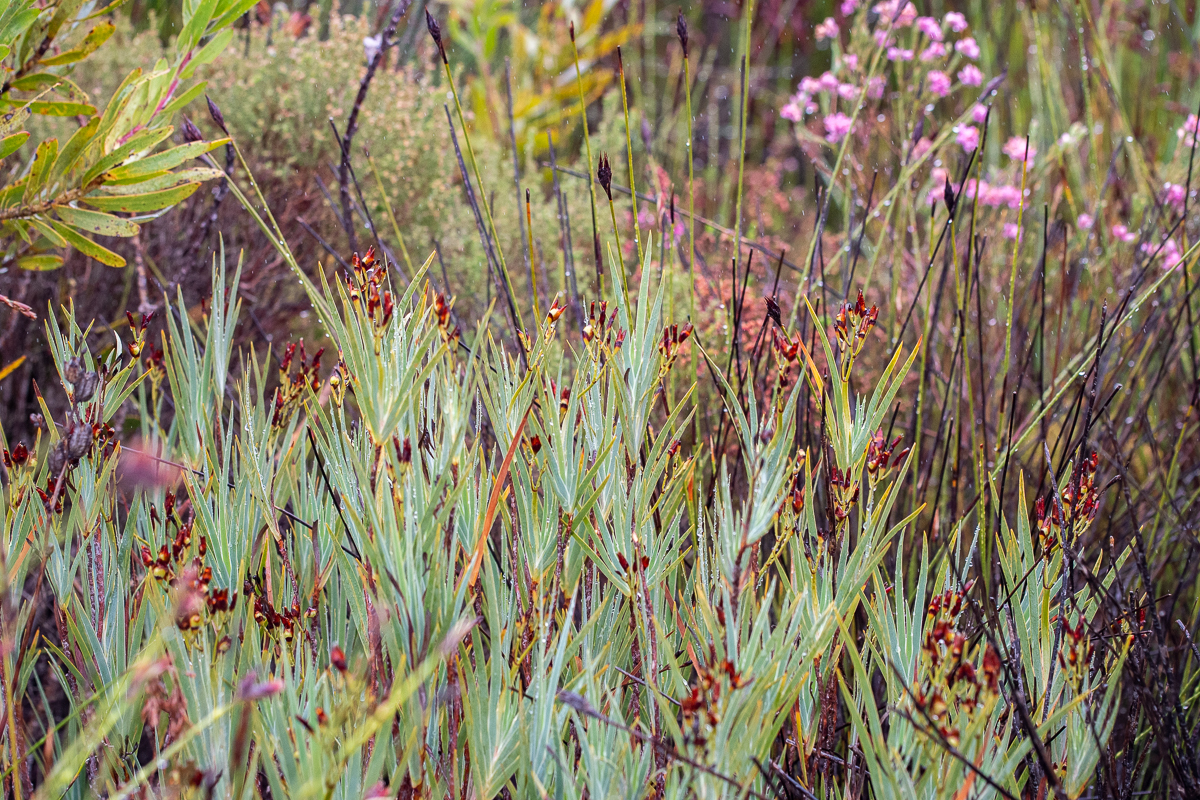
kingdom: Plantae
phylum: Tracheophyta
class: Liliopsida
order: Asparagales
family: Iridaceae
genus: Nivenia
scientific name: Nivenia stokoei
